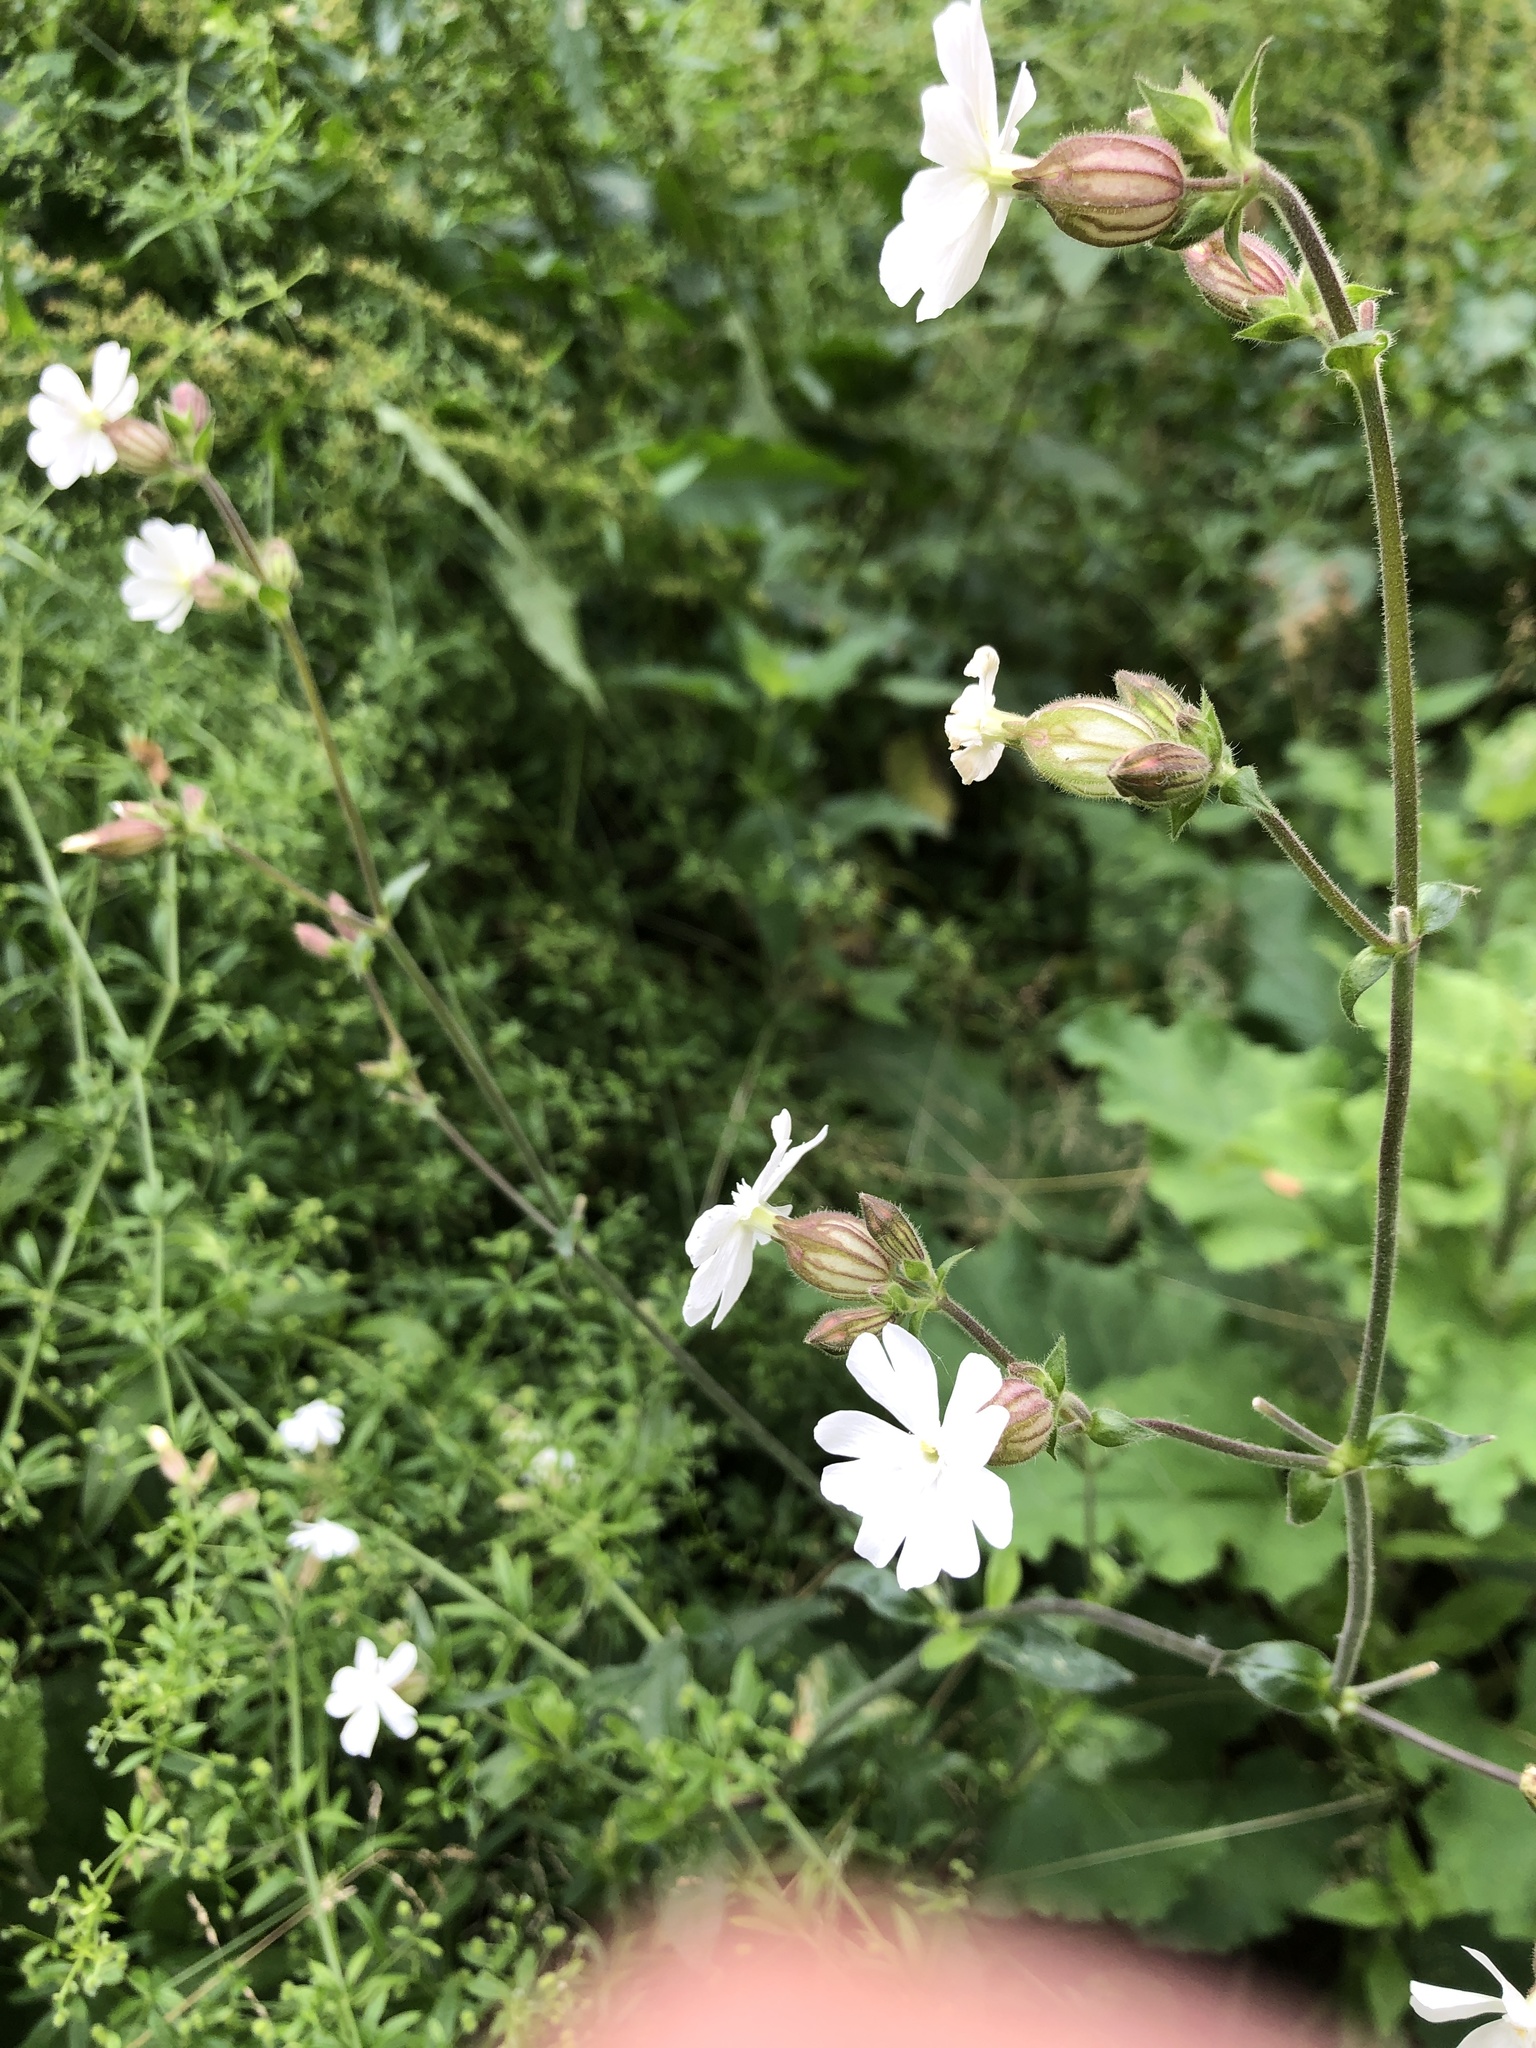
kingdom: Plantae
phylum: Tracheophyta
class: Magnoliopsida
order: Caryophyllales
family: Caryophyllaceae
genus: Silene
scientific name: Silene latifolia
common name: White campion
